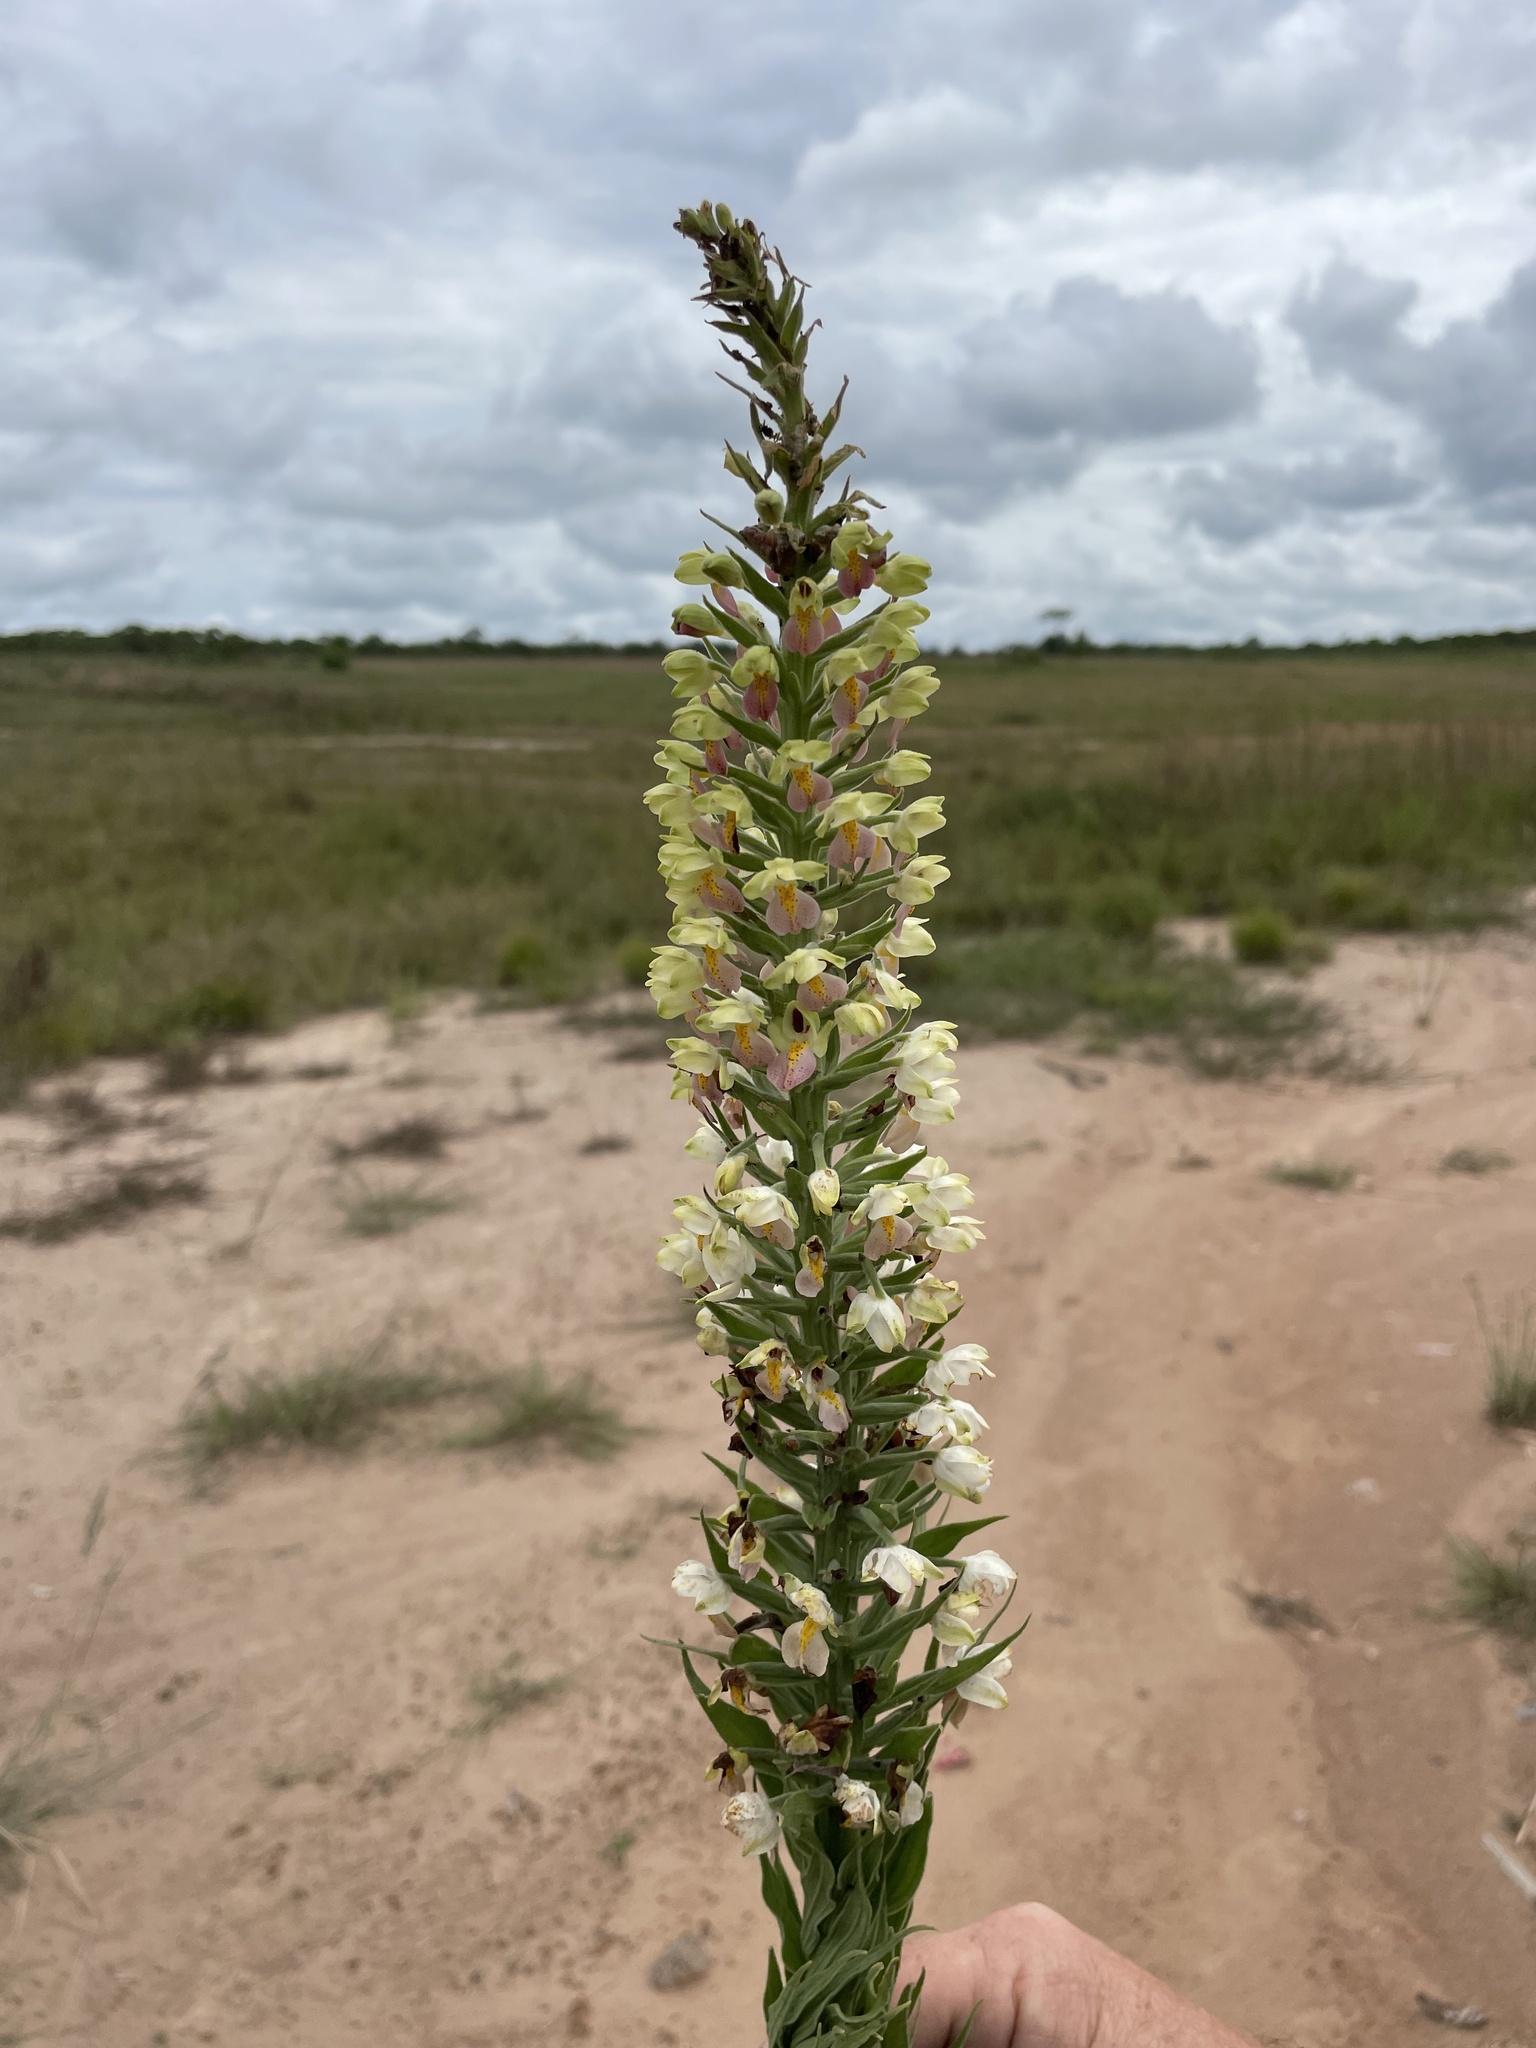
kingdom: Plantae
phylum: Tracheophyta
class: Liliopsida
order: Asparagales
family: Orchidaceae
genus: Brachycorythis
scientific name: Brachycorythis pubescens
